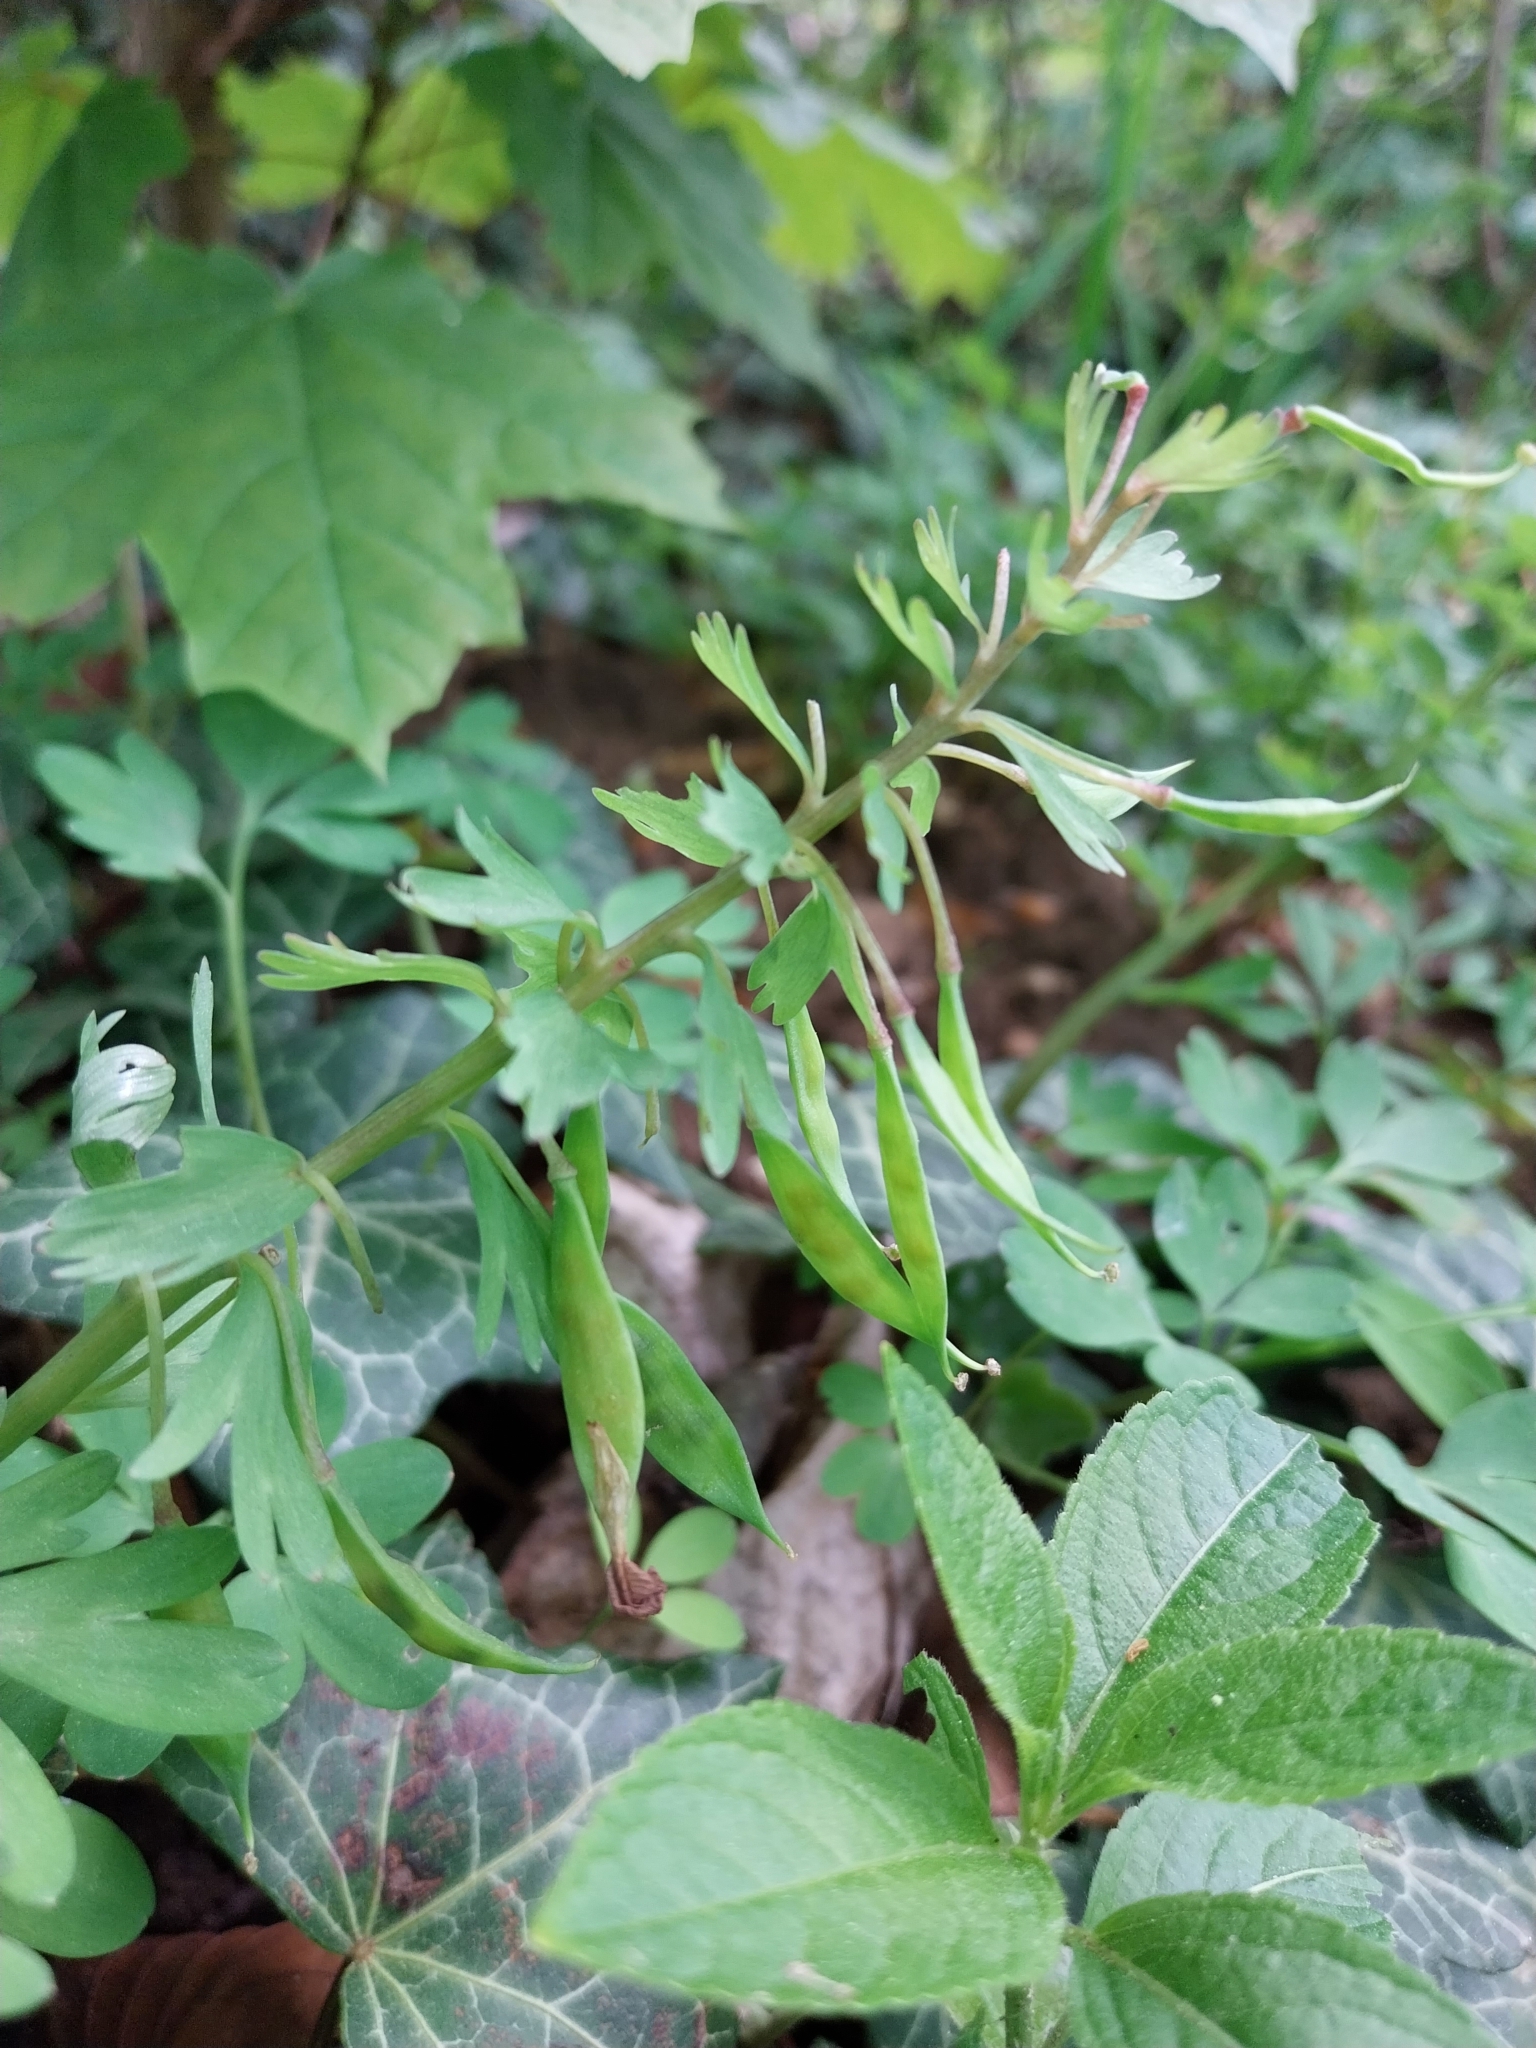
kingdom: Plantae
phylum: Tracheophyta
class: Magnoliopsida
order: Ranunculales
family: Papaveraceae
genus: Corydalis
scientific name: Corydalis solida
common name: Bird-in-a-bush
